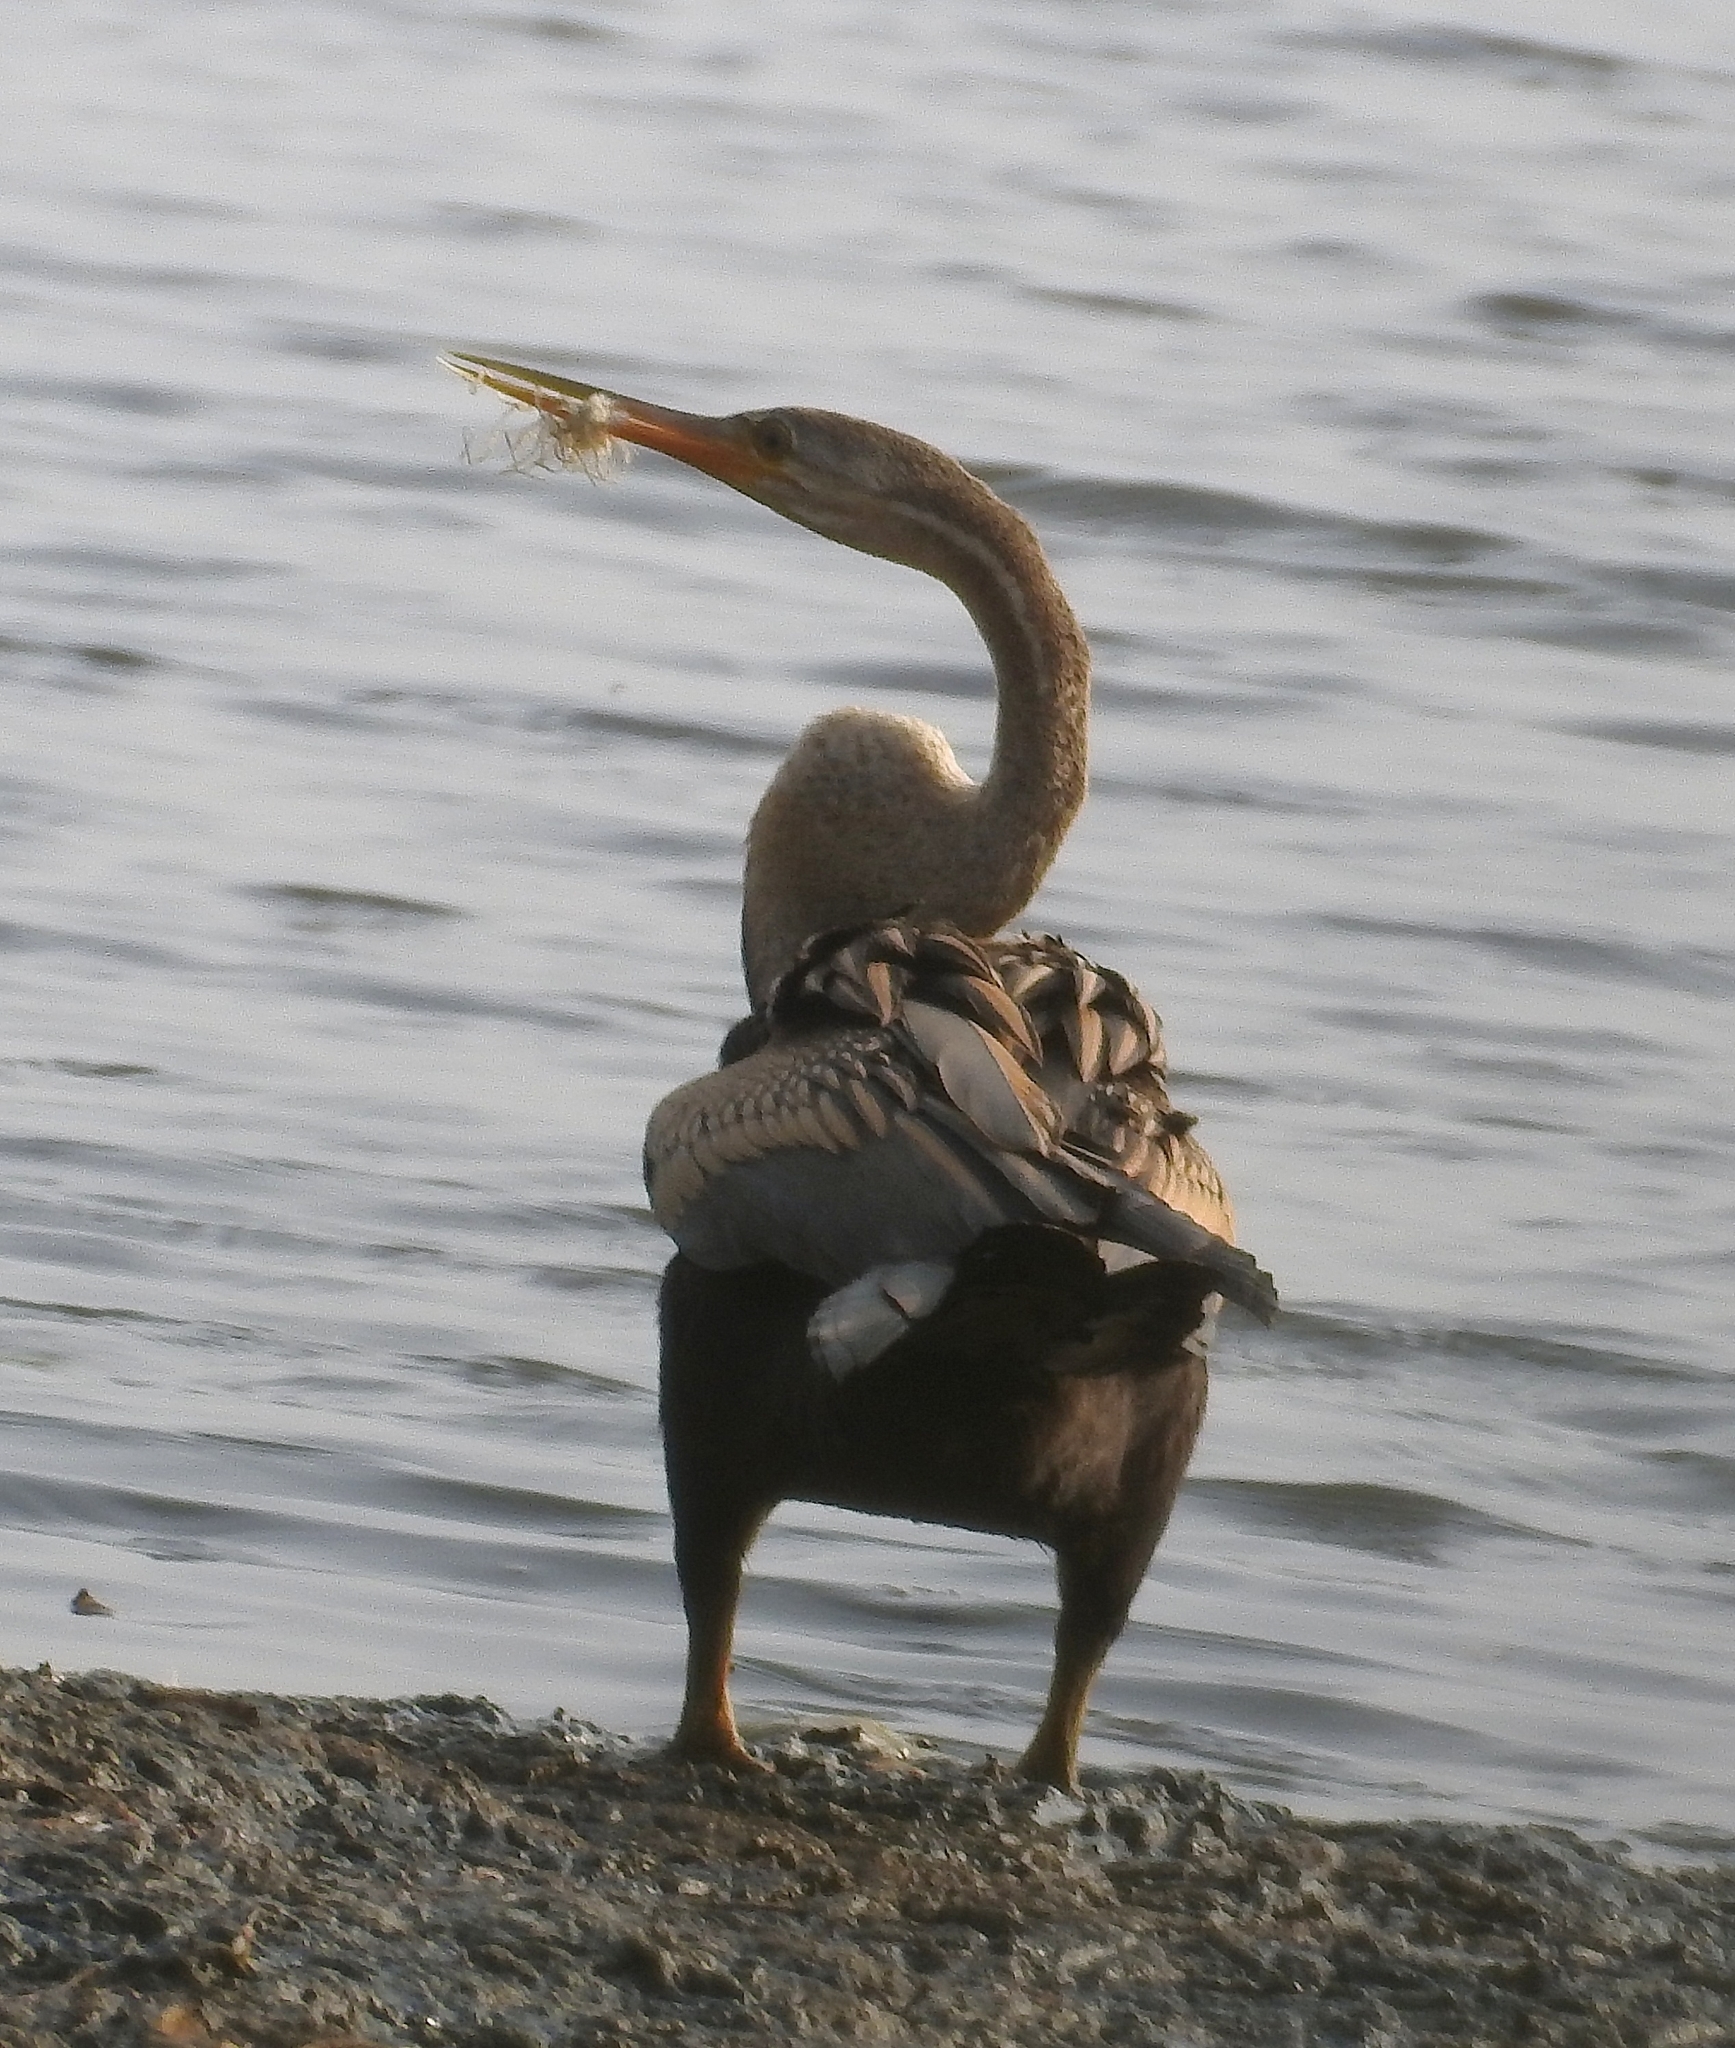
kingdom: Animalia
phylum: Chordata
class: Aves
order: Suliformes
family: Anhingidae
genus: Anhinga
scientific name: Anhinga melanogaster
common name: Oriental darter
